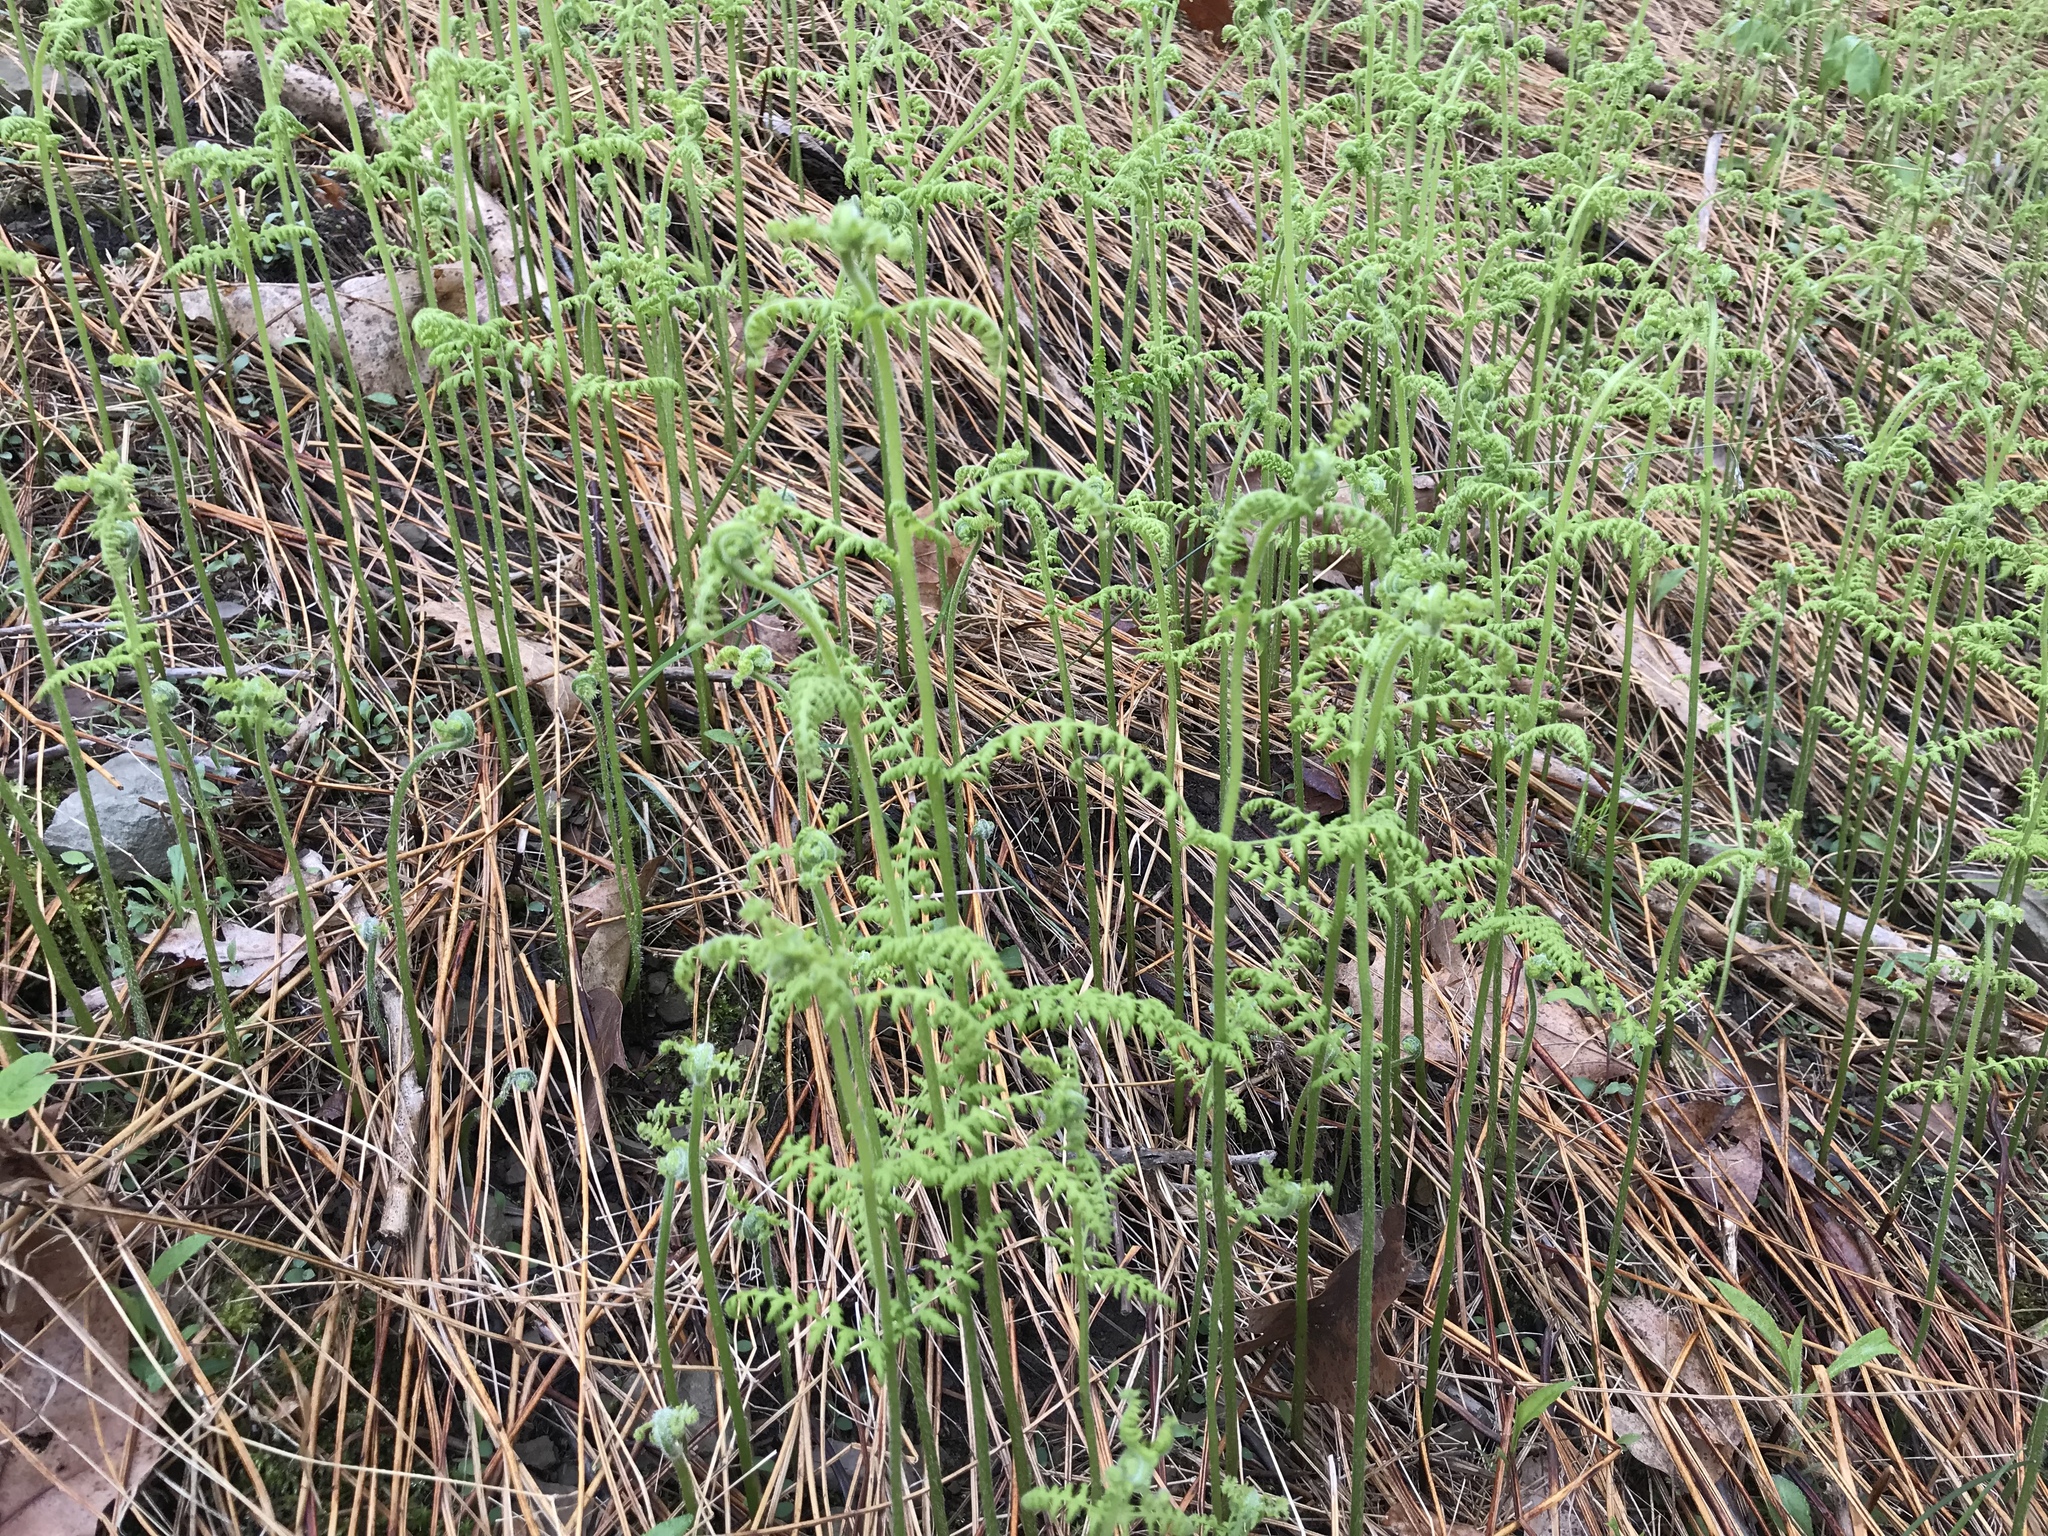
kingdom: Plantae
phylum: Tracheophyta
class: Polypodiopsida
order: Polypodiales
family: Dennstaedtiaceae
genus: Sitobolium
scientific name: Sitobolium punctilobum
